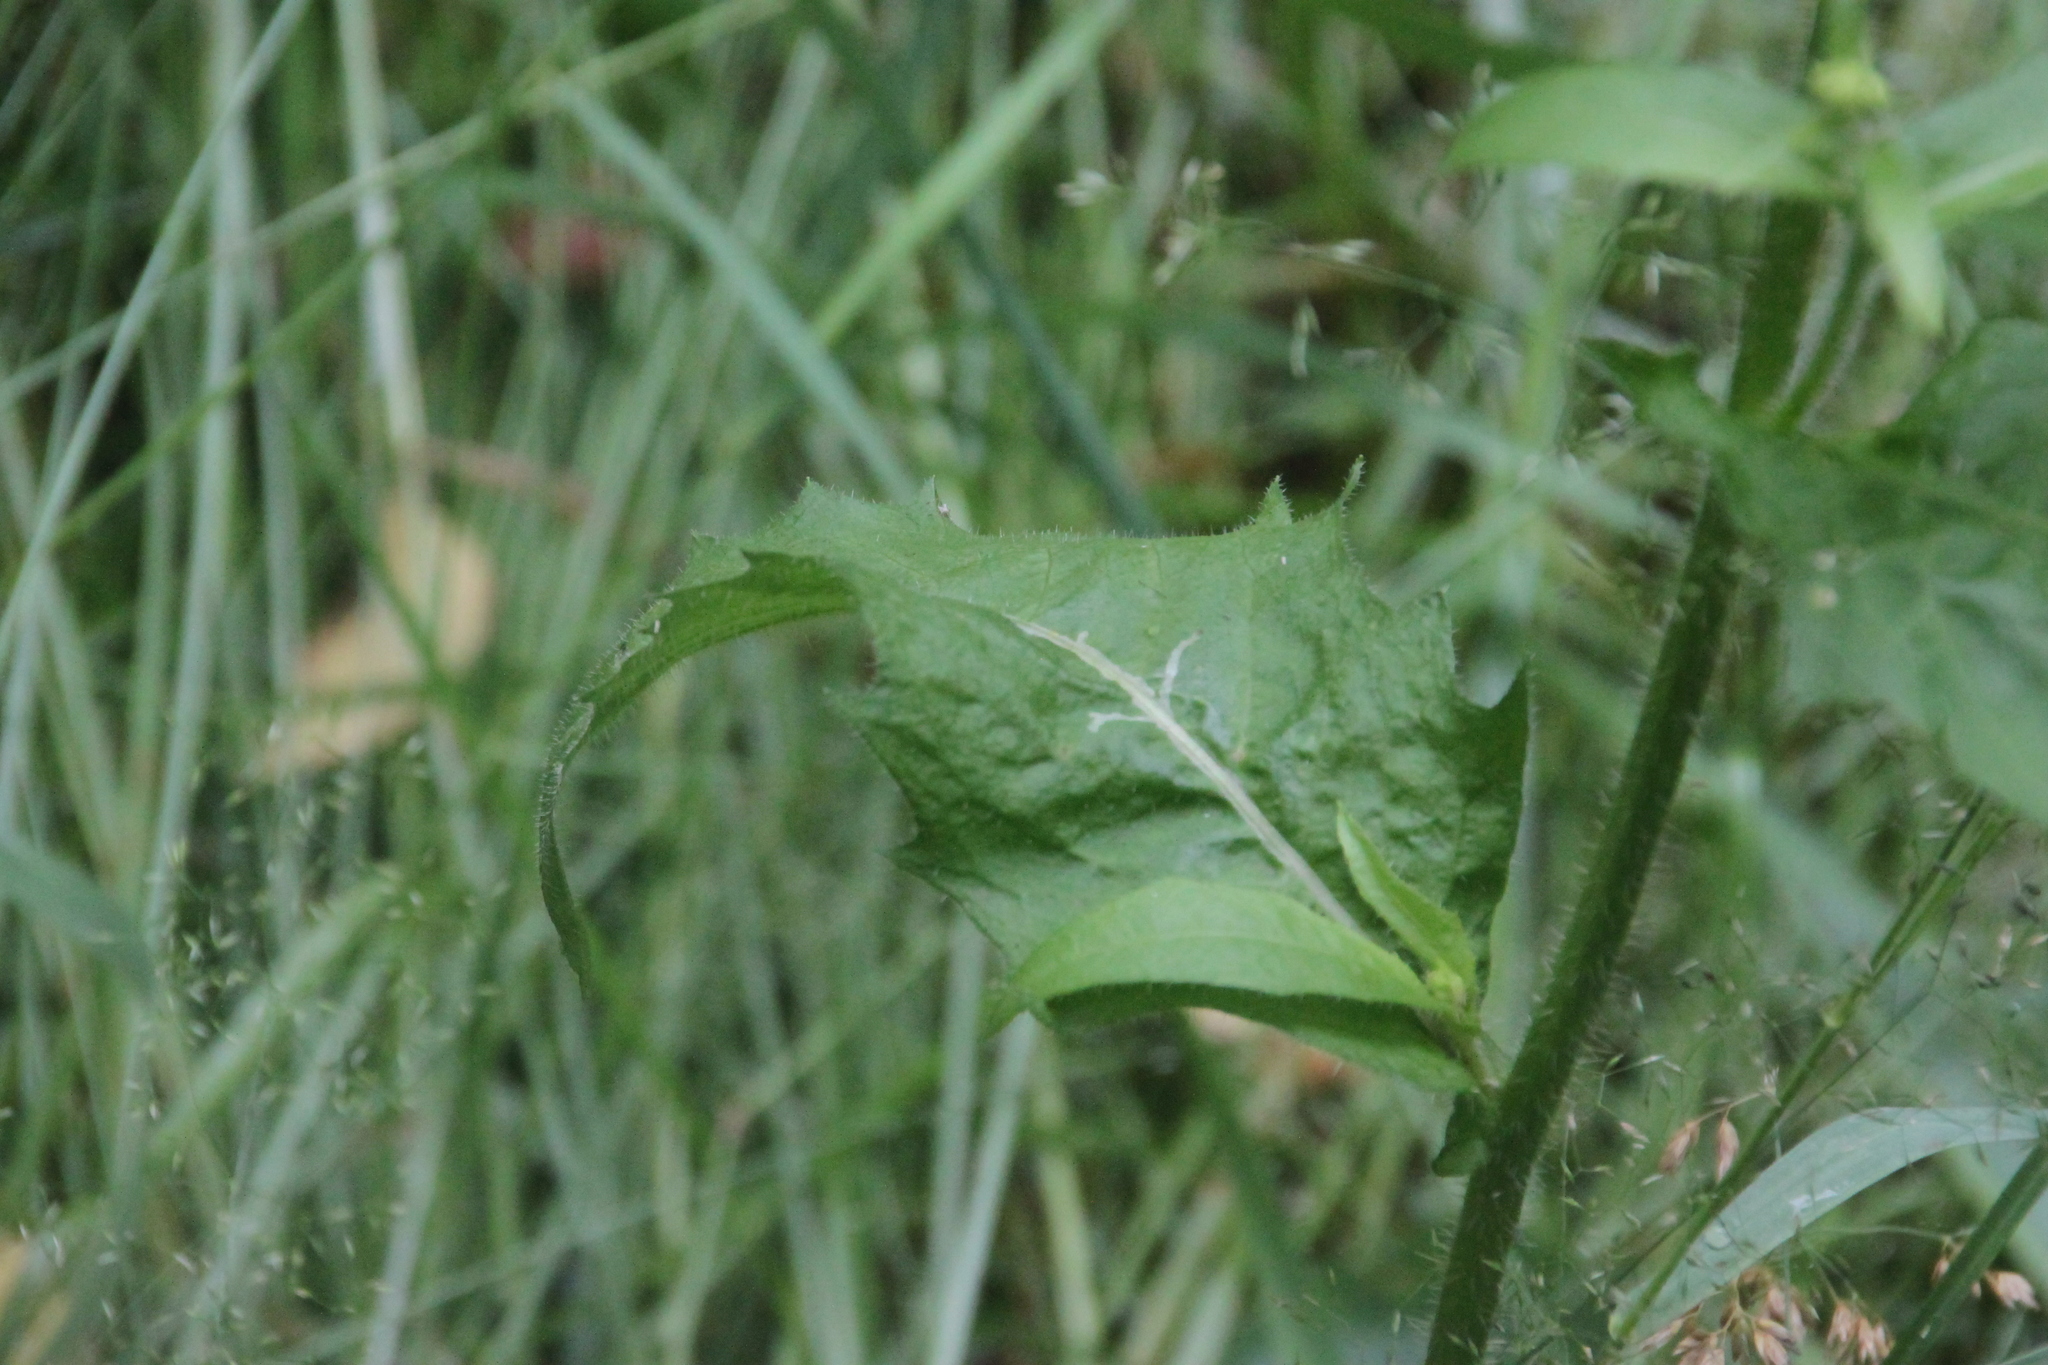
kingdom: Plantae
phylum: Tracheophyta
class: Magnoliopsida
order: Asterales
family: Asteraceae
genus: Picris
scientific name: Picris hieracioides
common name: Hawkweed oxtongue
